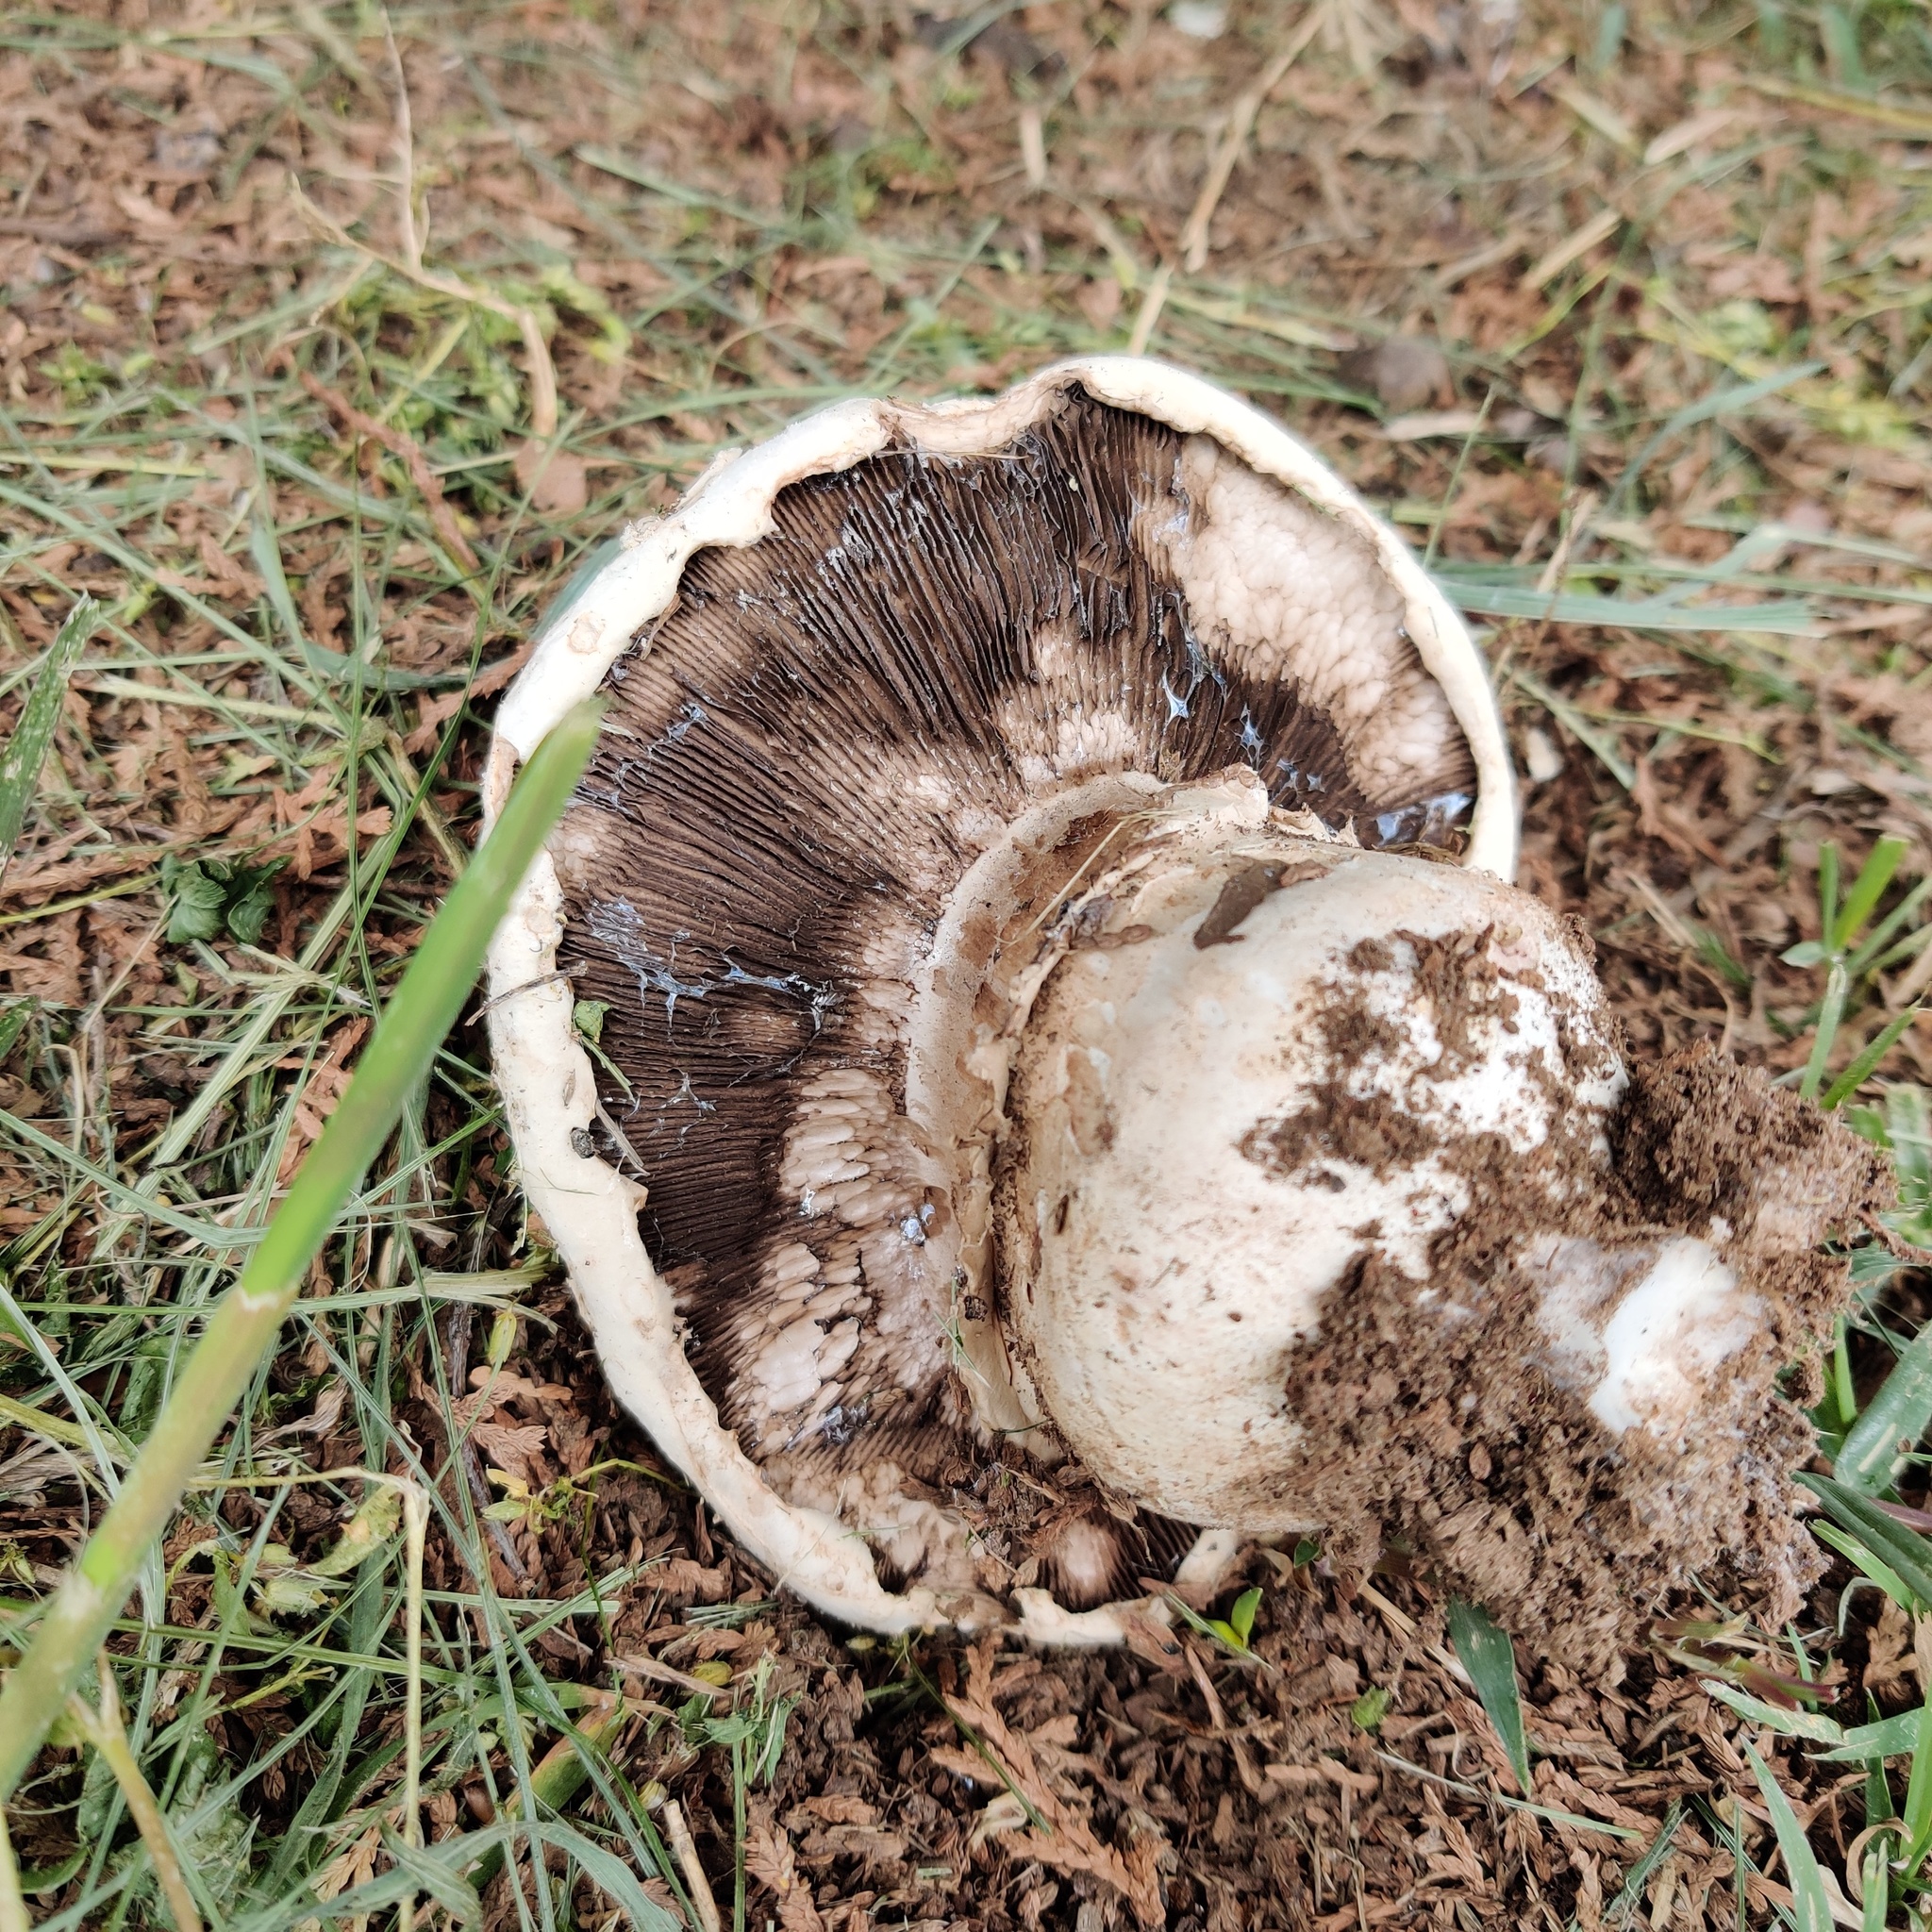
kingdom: Fungi
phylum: Basidiomycota
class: Agaricomycetes
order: Agaricales
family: Agaricaceae
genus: Agaricus
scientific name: Agaricus bitorquis
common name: Pavement mushroom
